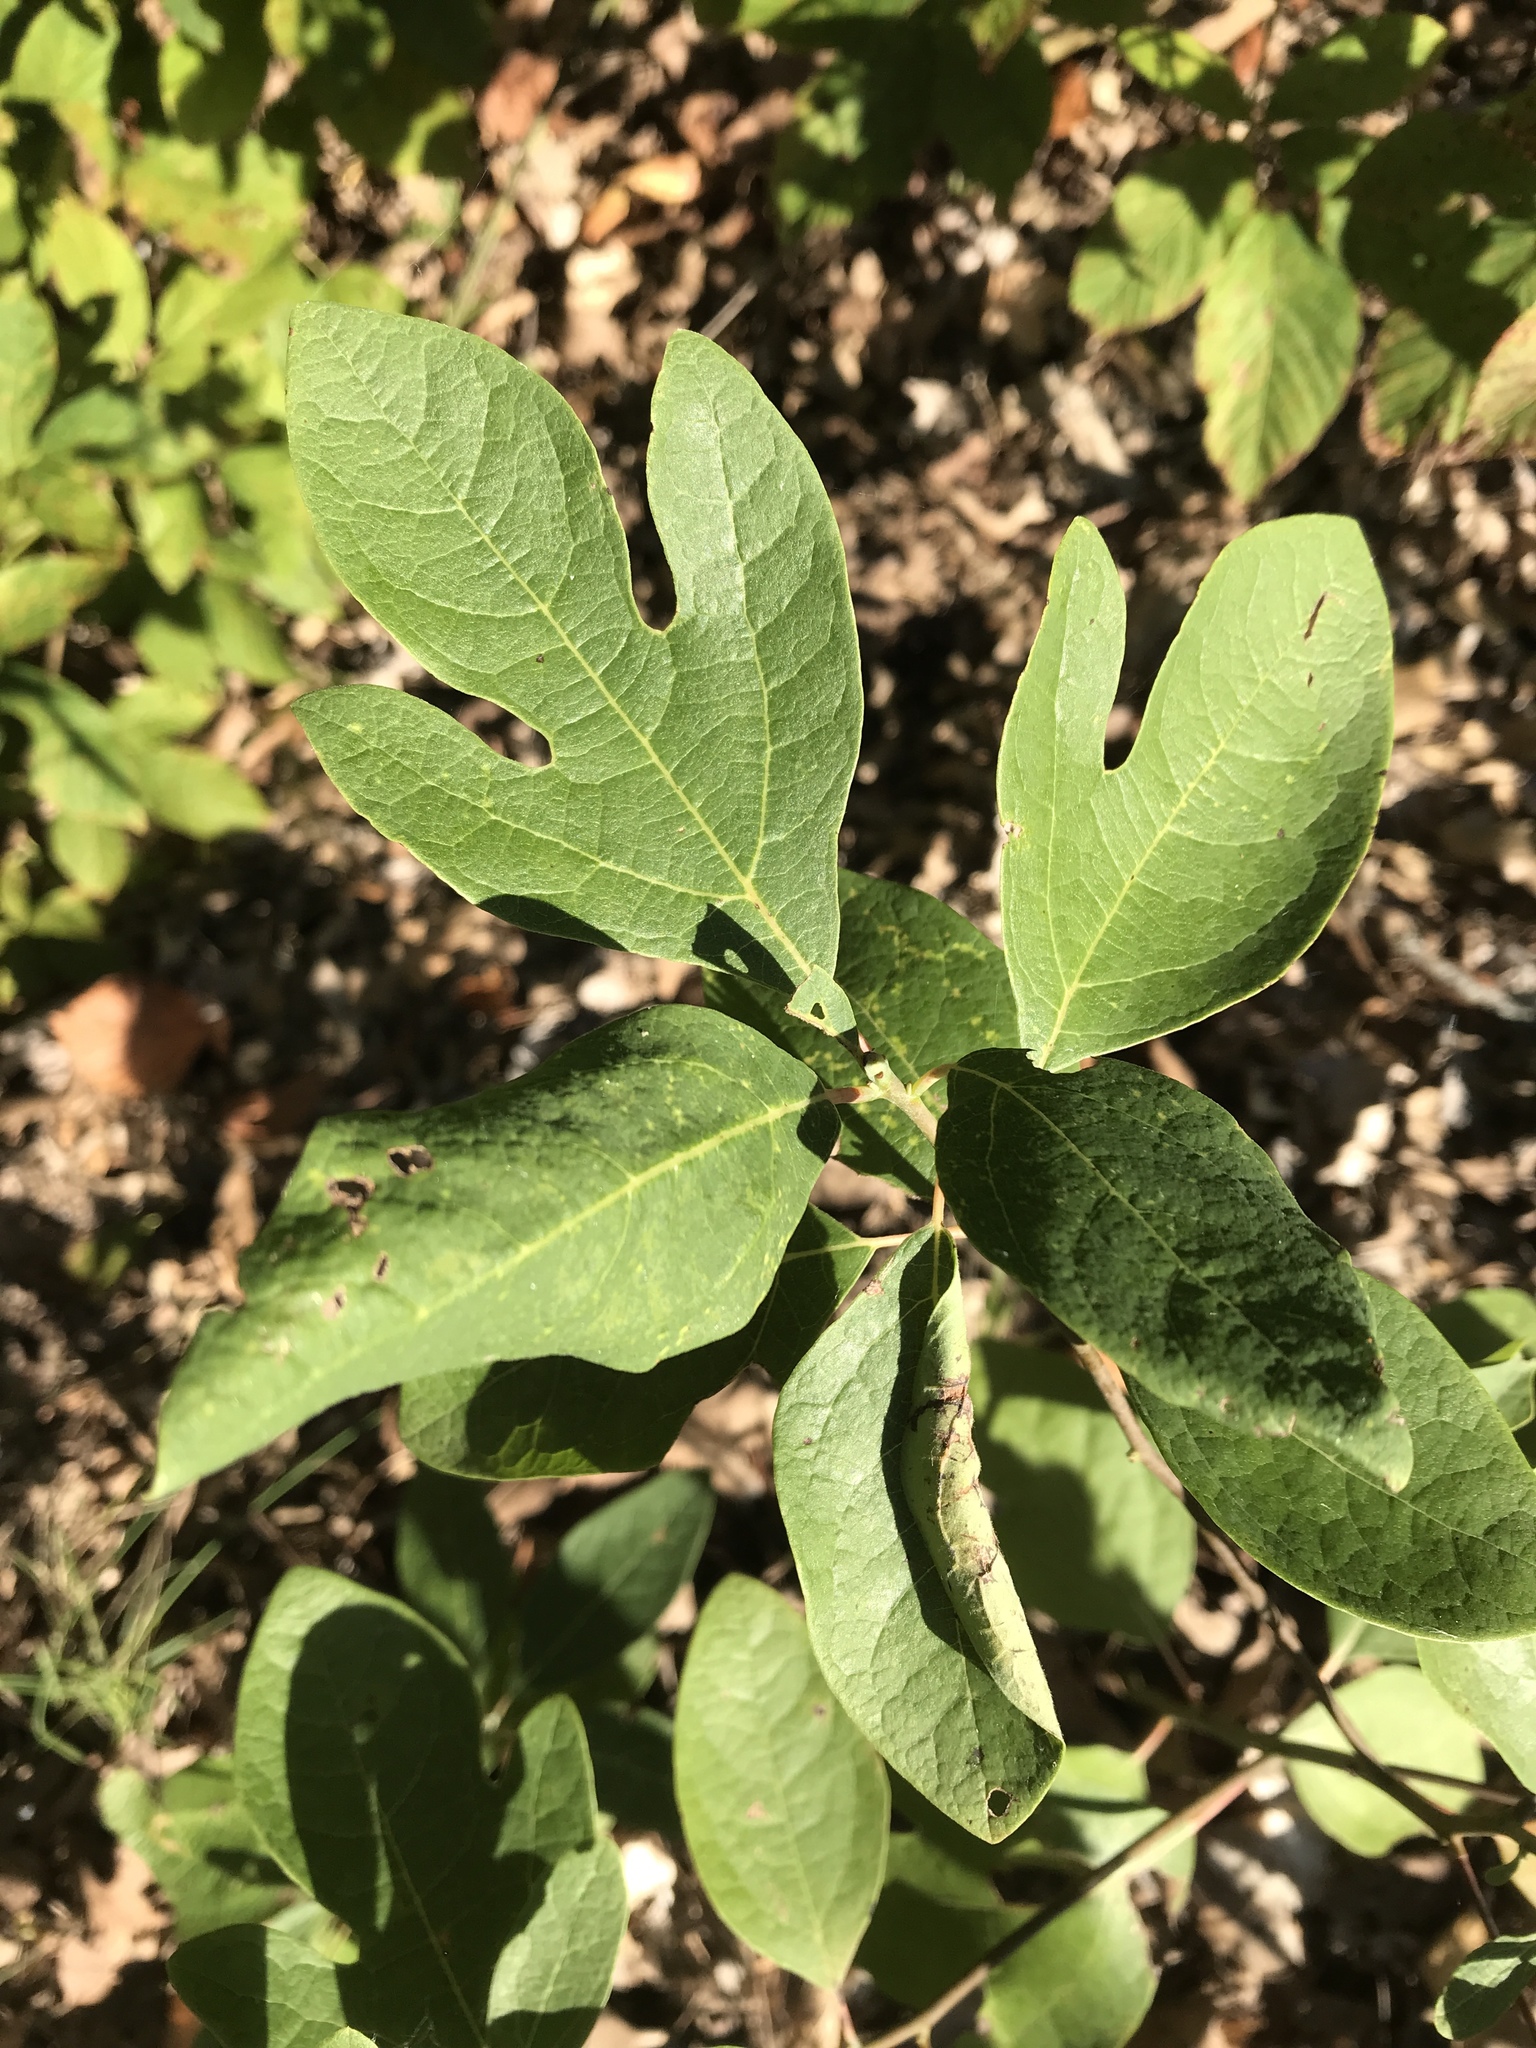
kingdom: Plantae
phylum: Tracheophyta
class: Magnoliopsida
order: Laurales
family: Lauraceae
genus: Sassafras
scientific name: Sassafras albidum
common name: Sassafras
